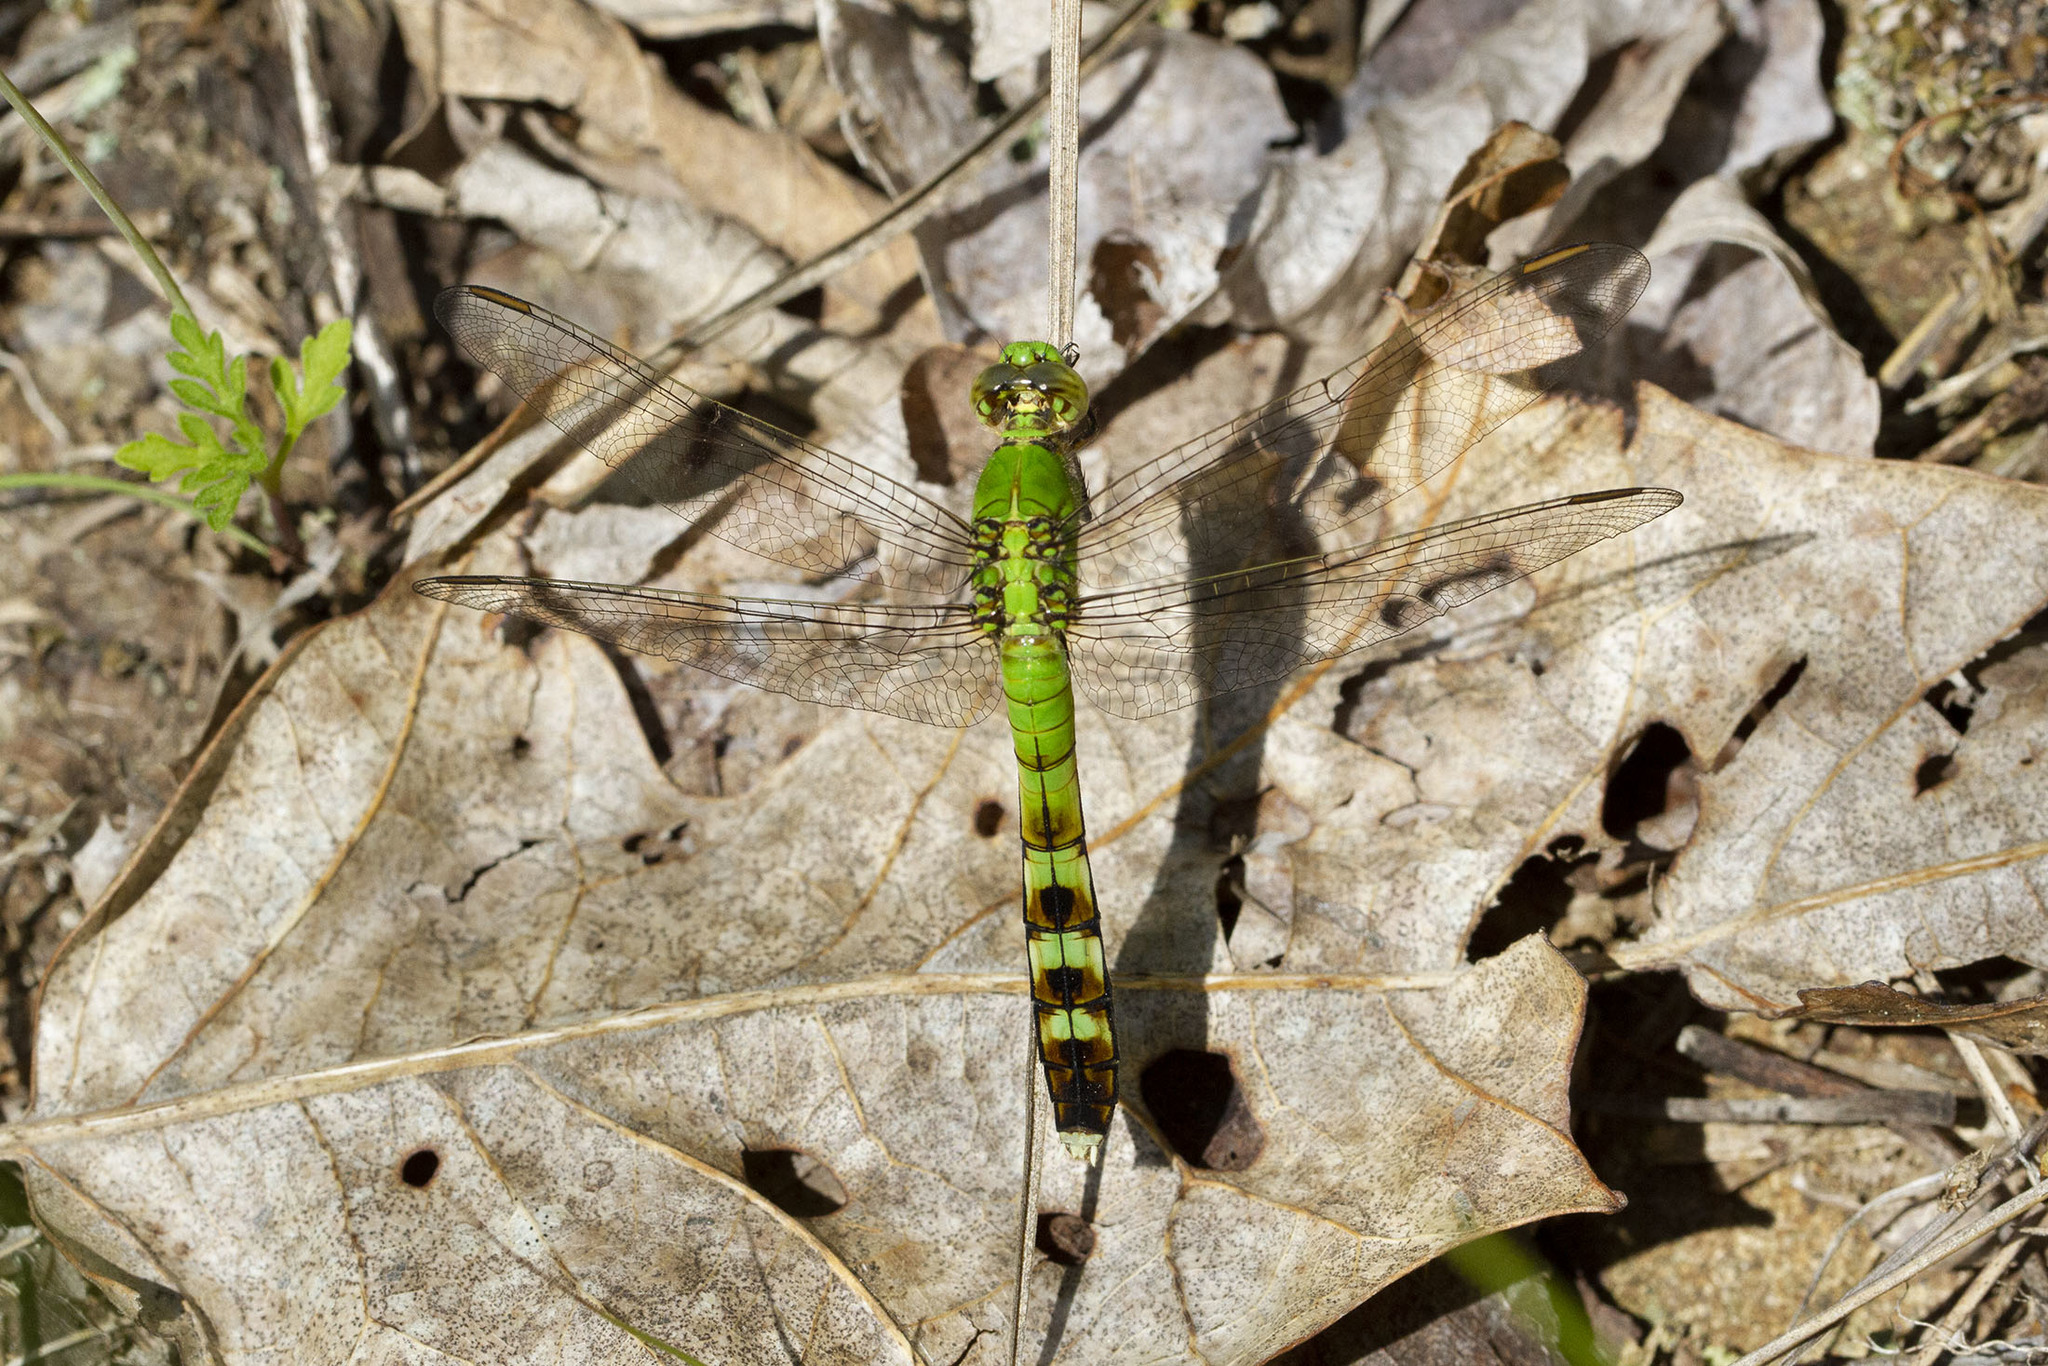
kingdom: Animalia
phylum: Arthropoda
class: Insecta
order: Odonata
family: Libellulidae
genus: Erythemis
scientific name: Erythemis simplicicollis
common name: Eastern pondhawk
